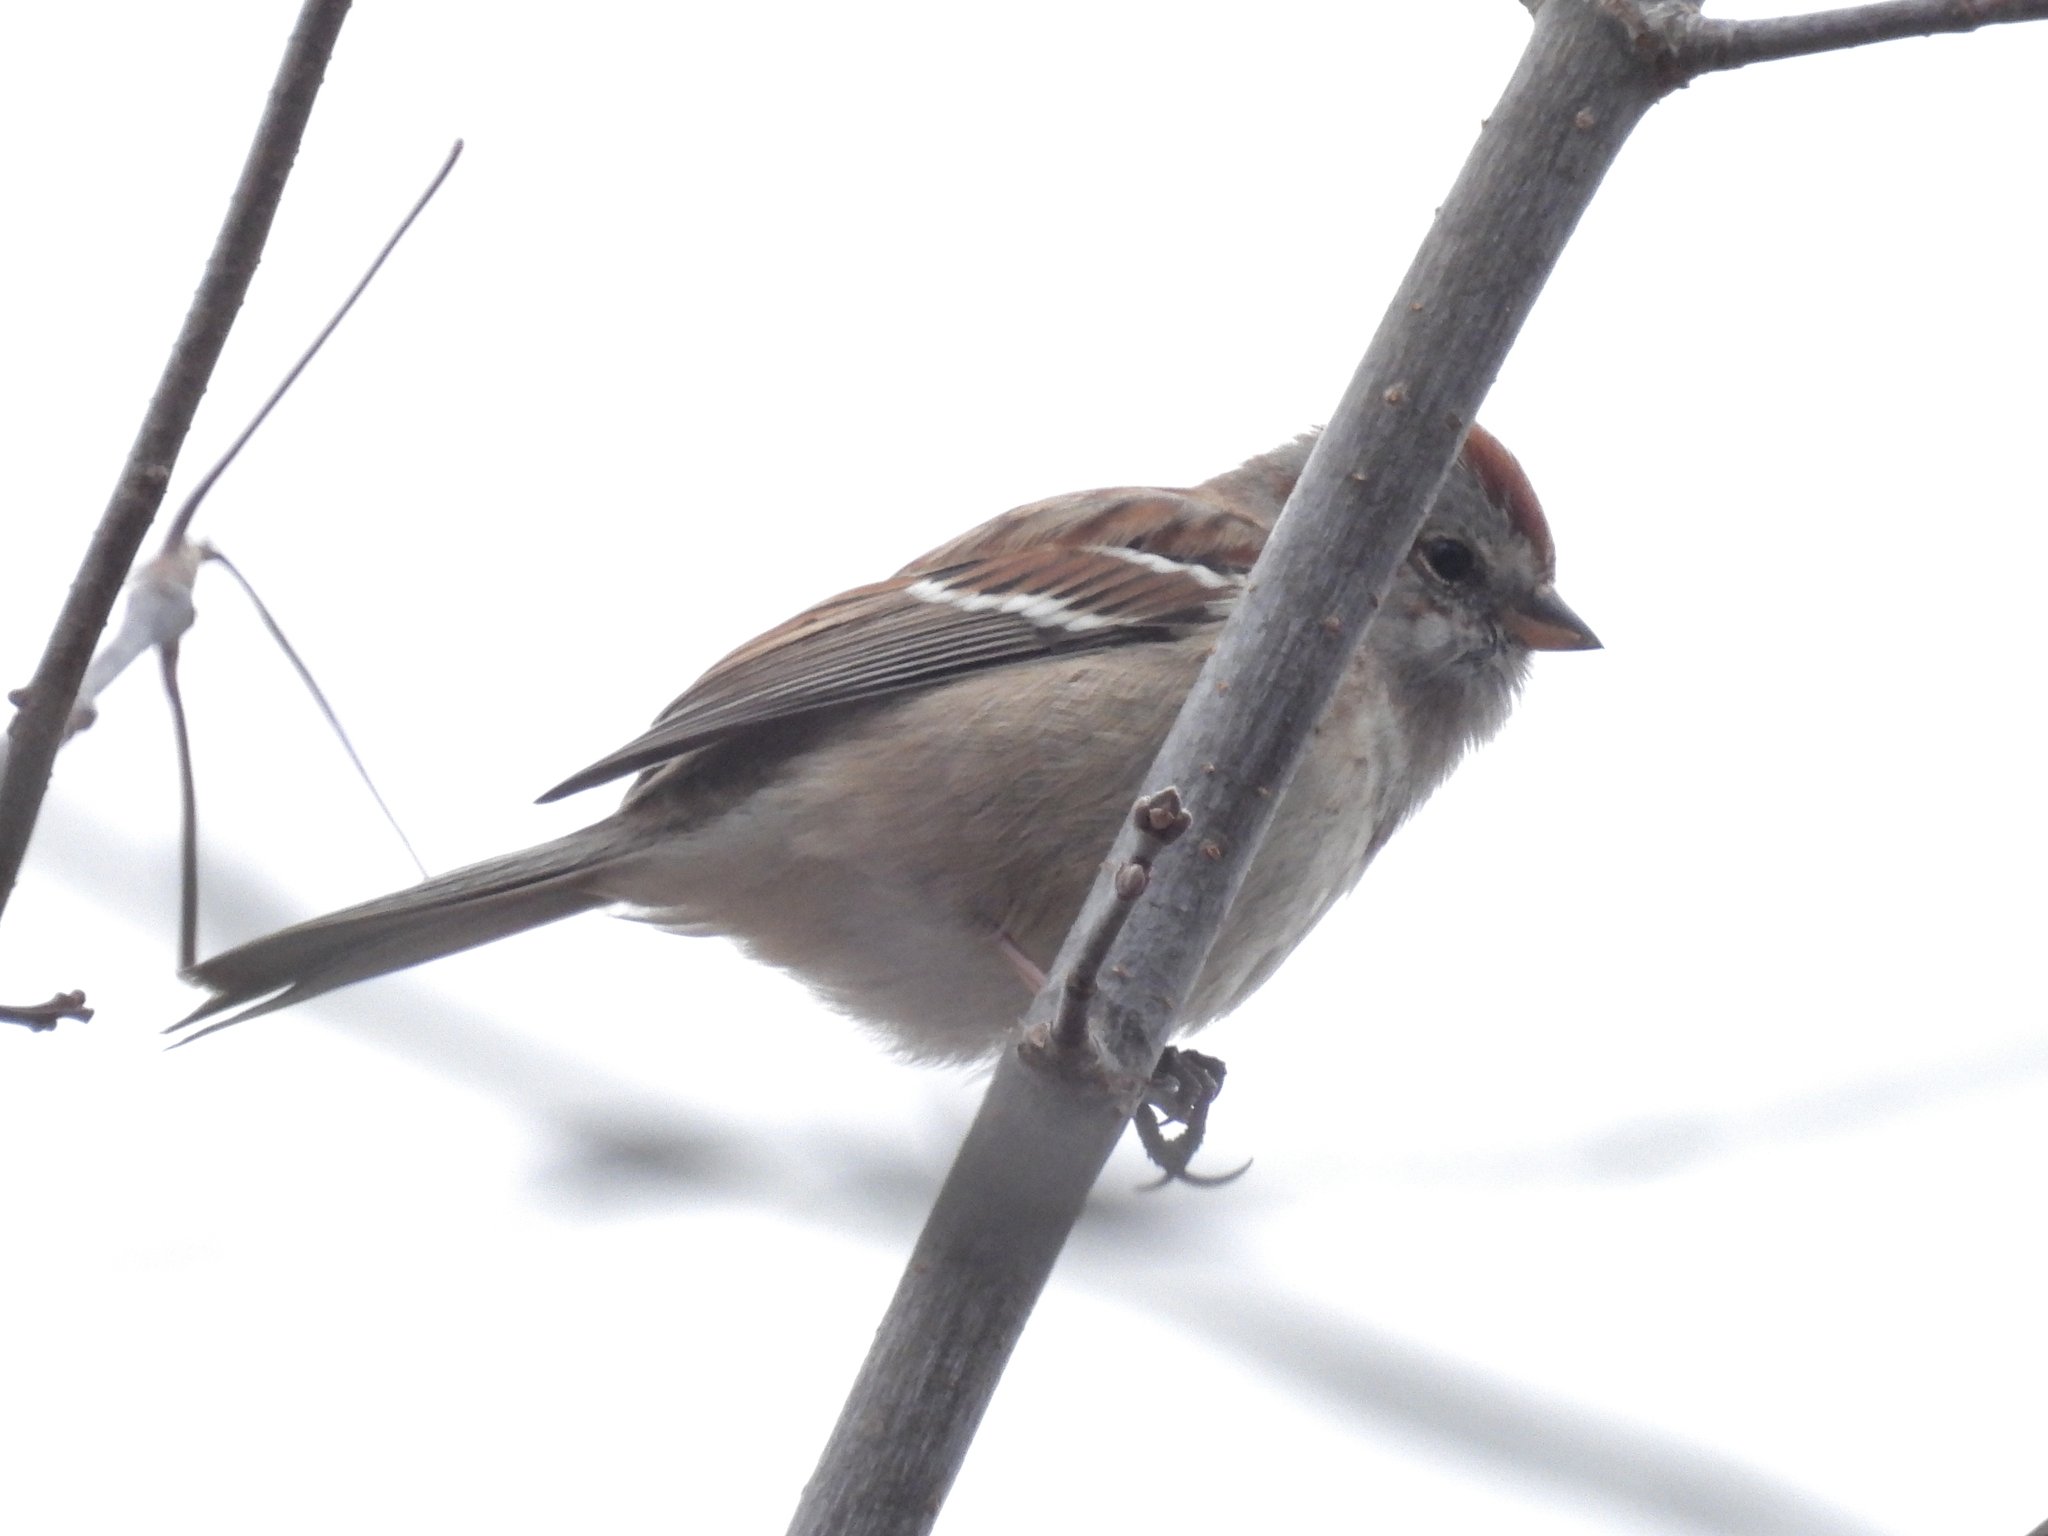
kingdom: Animalia
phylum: Chordata
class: Aves
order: Passeriformes
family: Passerellidae
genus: Spizelloides
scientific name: Spizelloides arborea
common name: American tree sparrow
